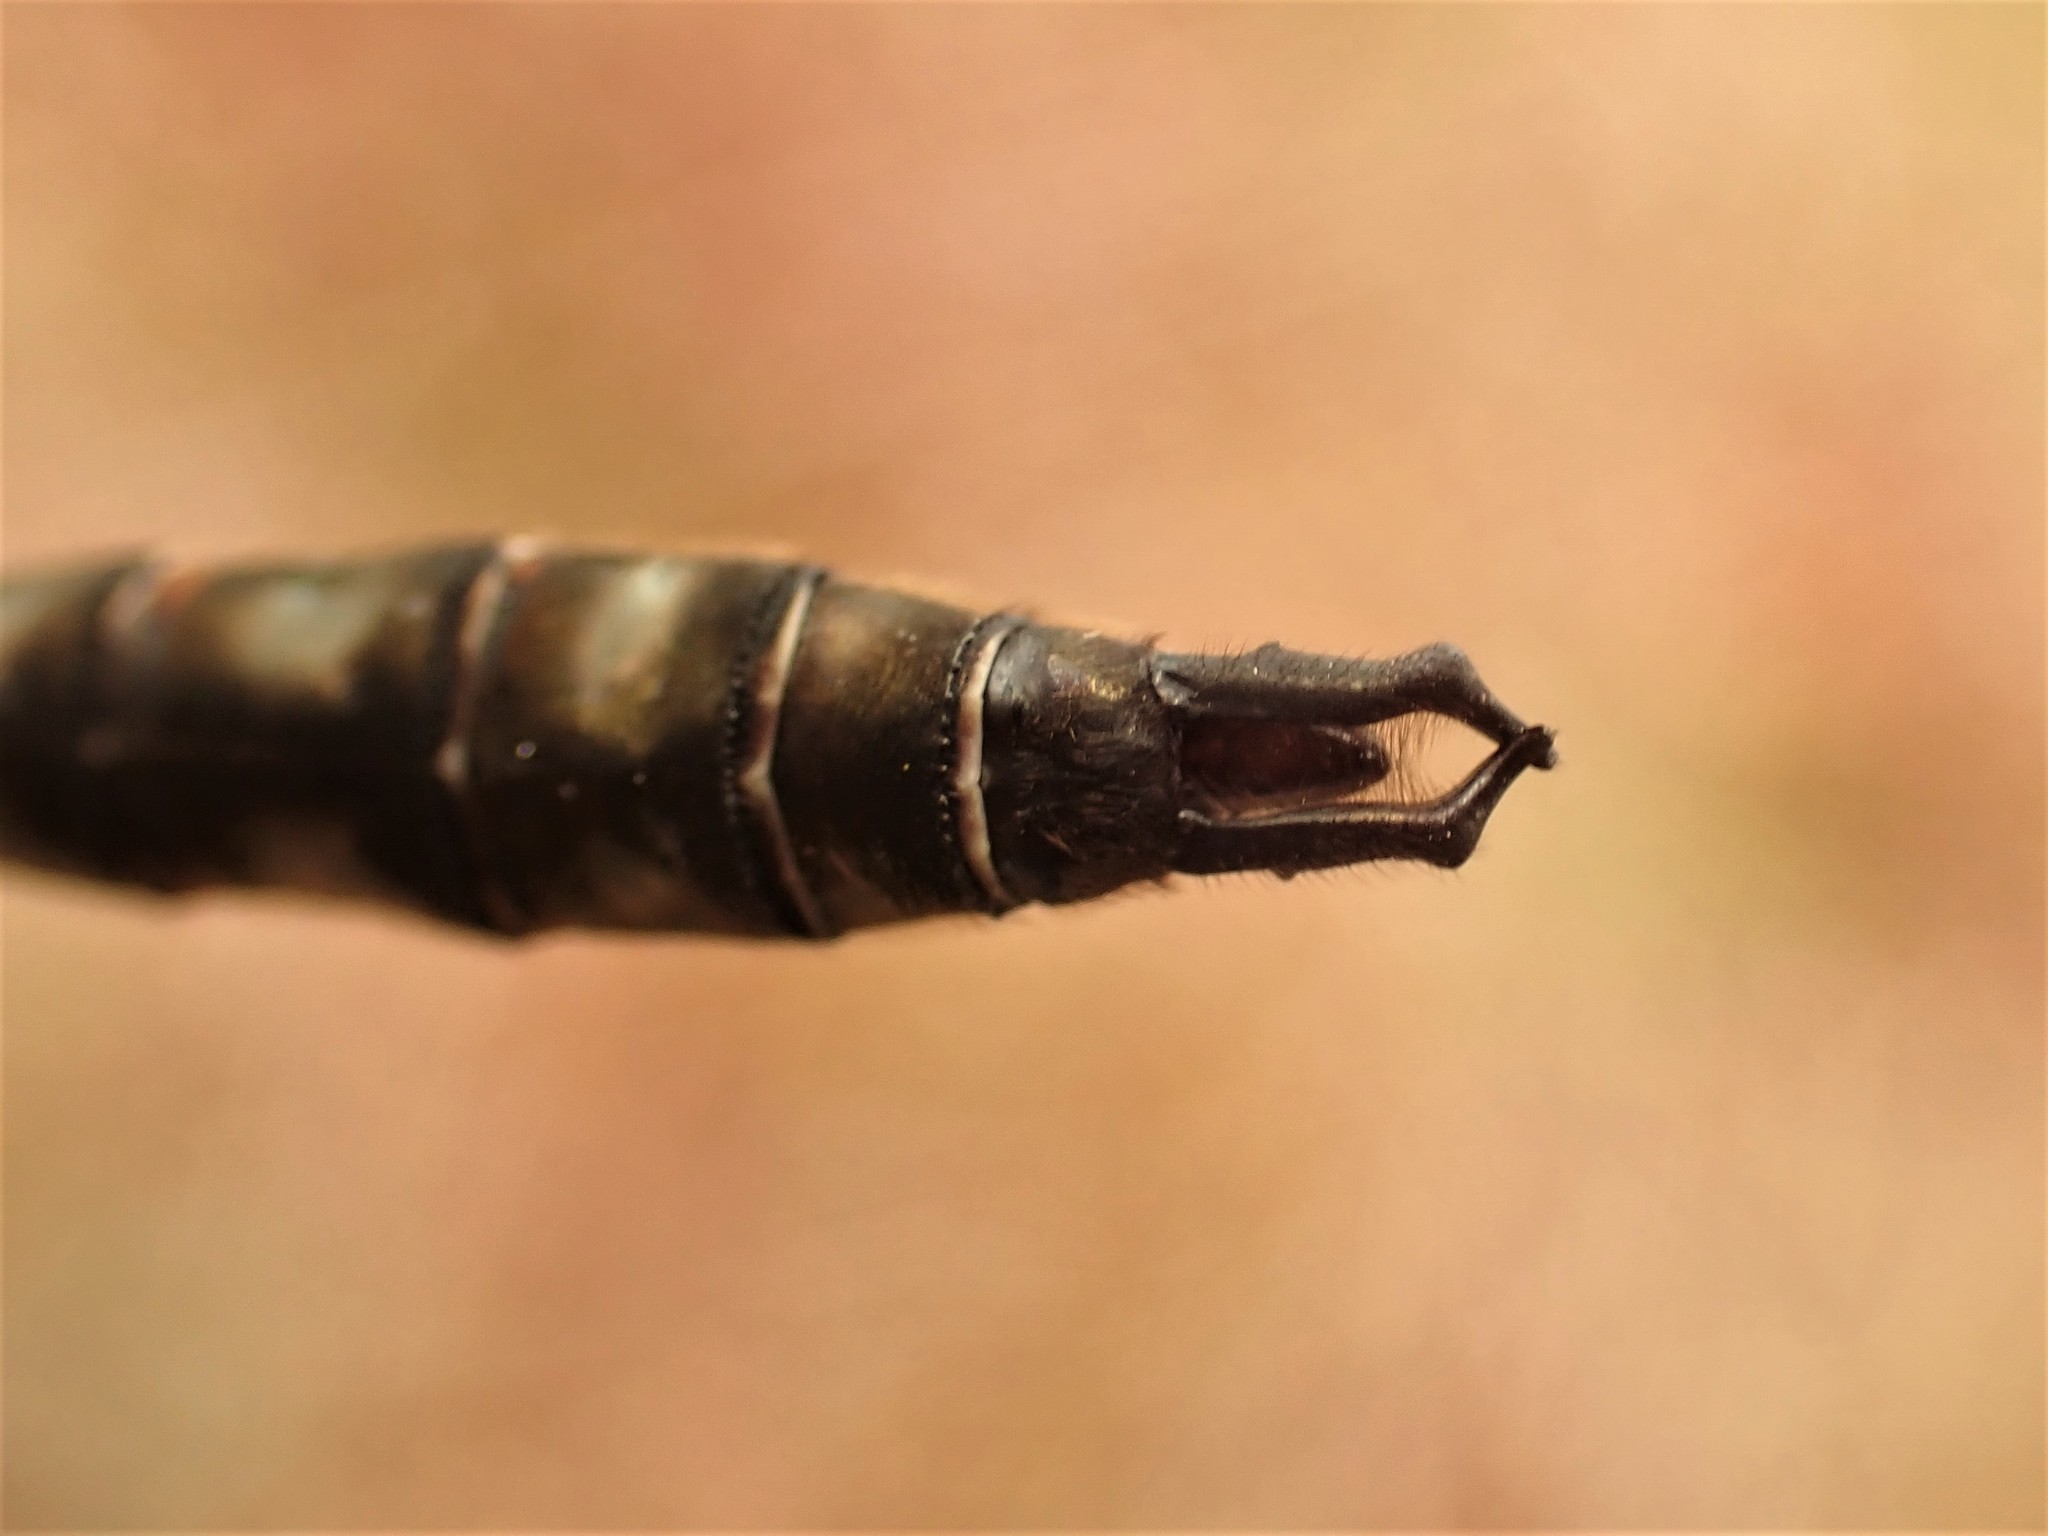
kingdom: Animalia
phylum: Arthropoda
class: Insecta
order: Odonata
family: Corduliidae
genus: Somatochlora
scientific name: Somatochlora septentrionalis
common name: Muskeg emerald
